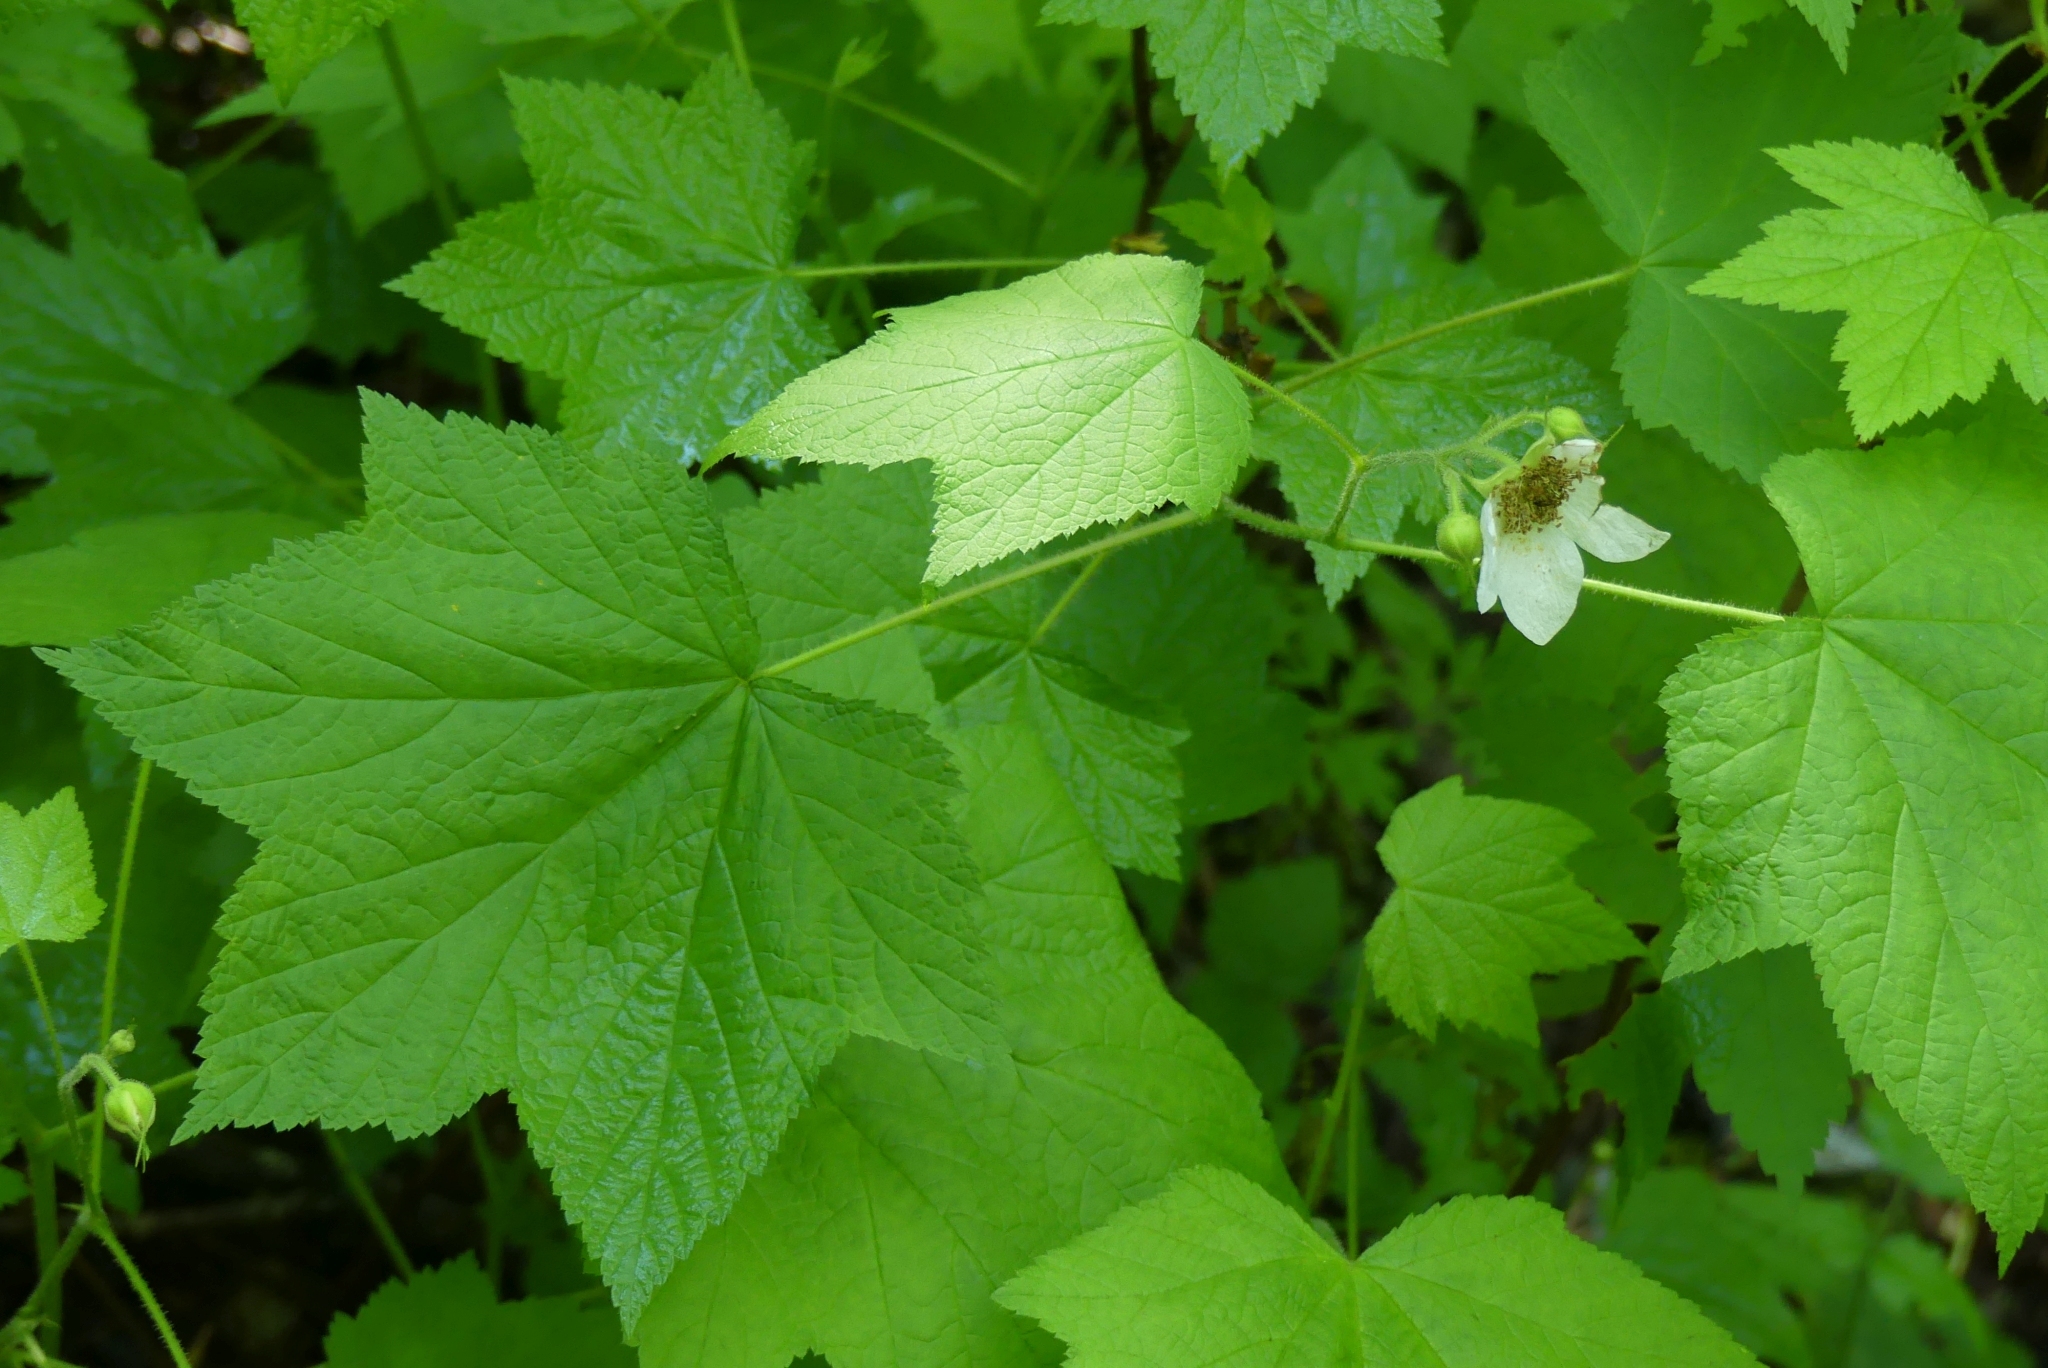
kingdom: Plantae
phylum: Tracheophyta
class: Magnoliopsida
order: Rosales
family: Rosaceae
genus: Rubus
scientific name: Rubus parviflorus
